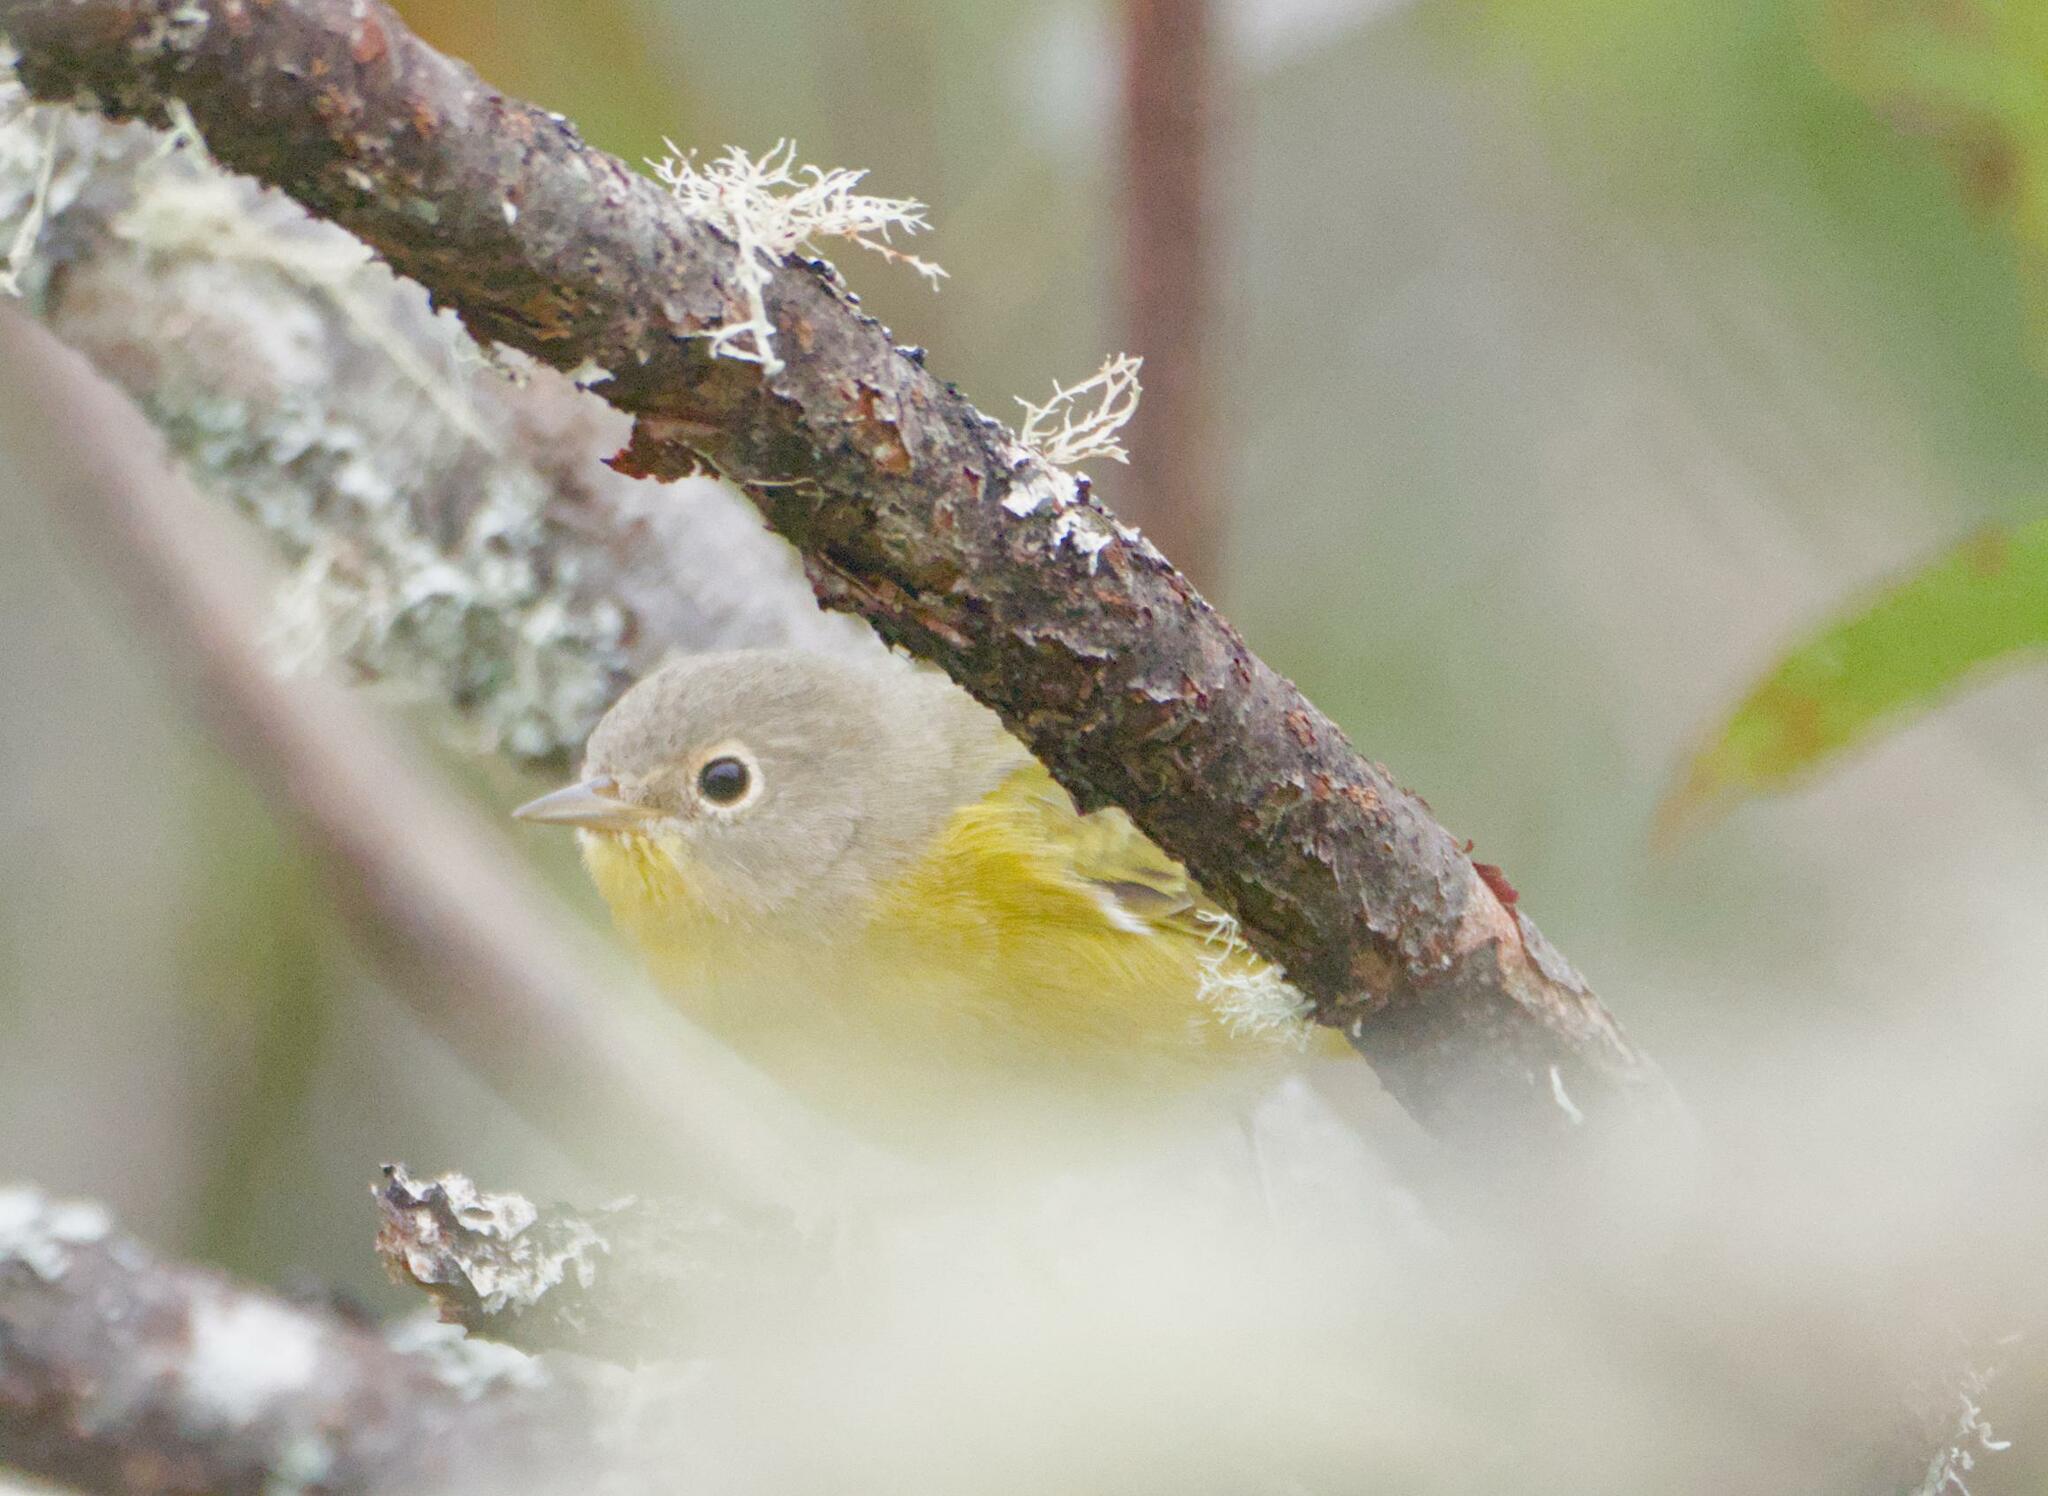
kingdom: Animalia
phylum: Chordata
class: Aves
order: Passeriformes
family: Parulidae
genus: Leiothlypis
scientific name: Leiothlypis ruficapilla
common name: Nashville warbler
